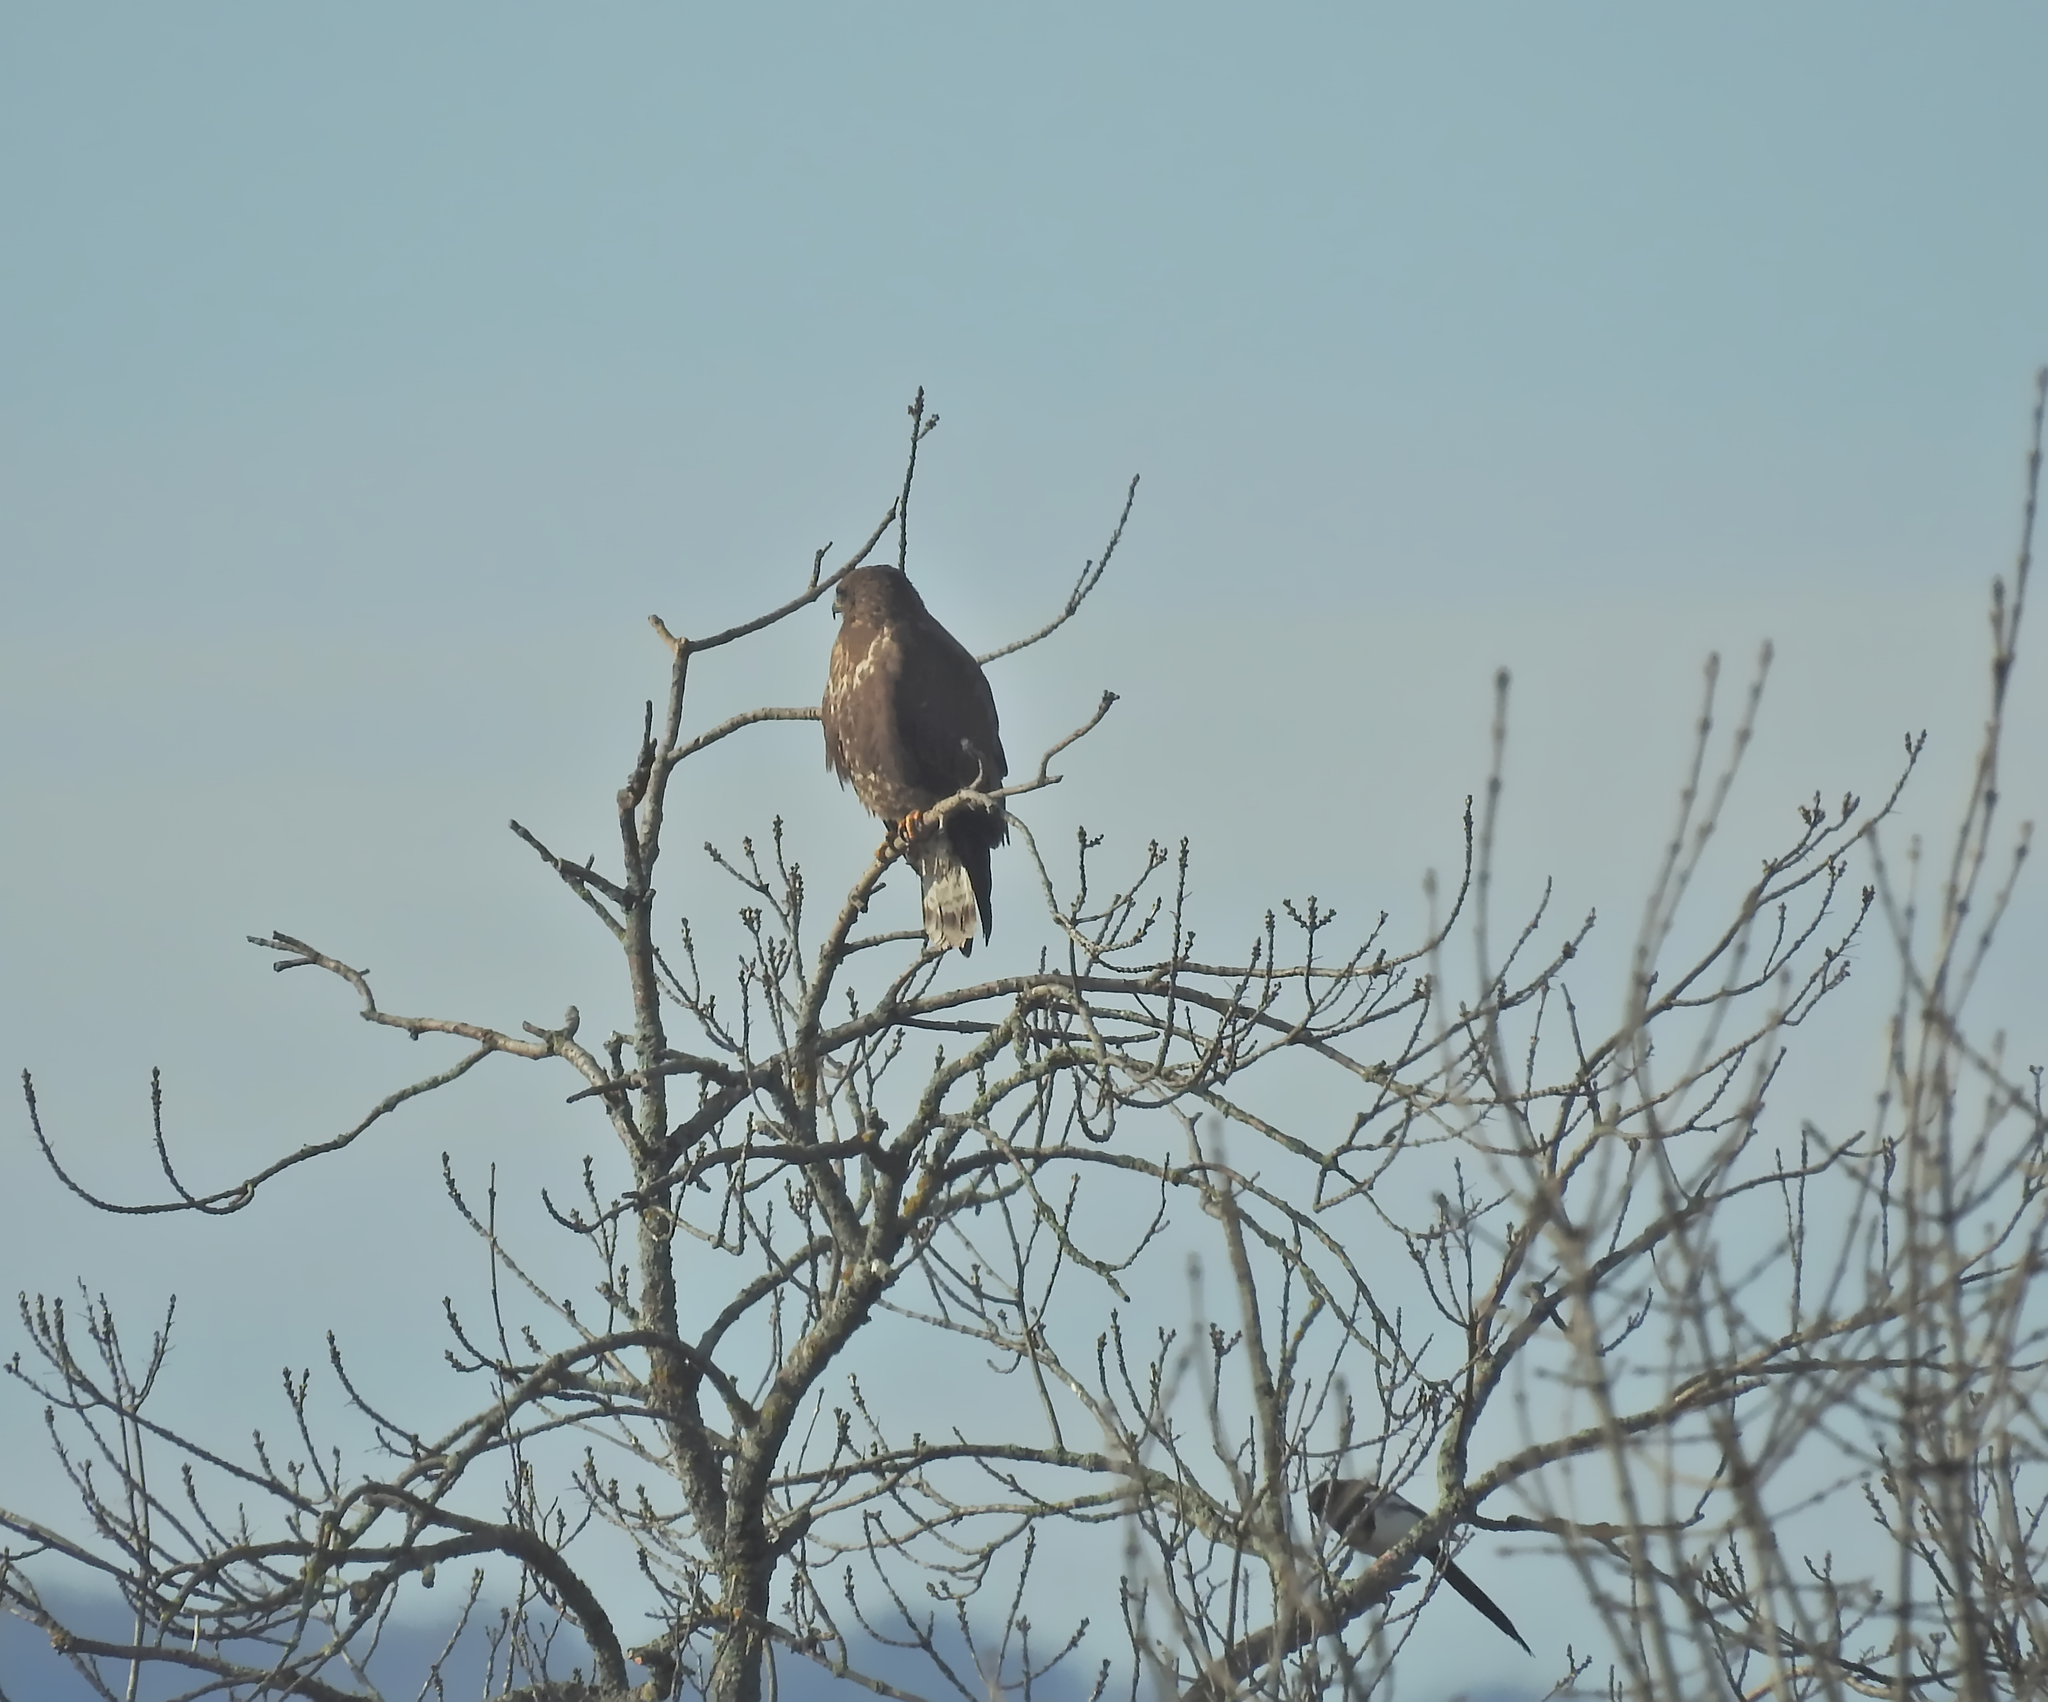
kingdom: Animalia
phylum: Chordata
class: Aves
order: Accipitriformes
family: Accipitridae
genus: Buteo
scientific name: Buteo buteo
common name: Common buzzard
